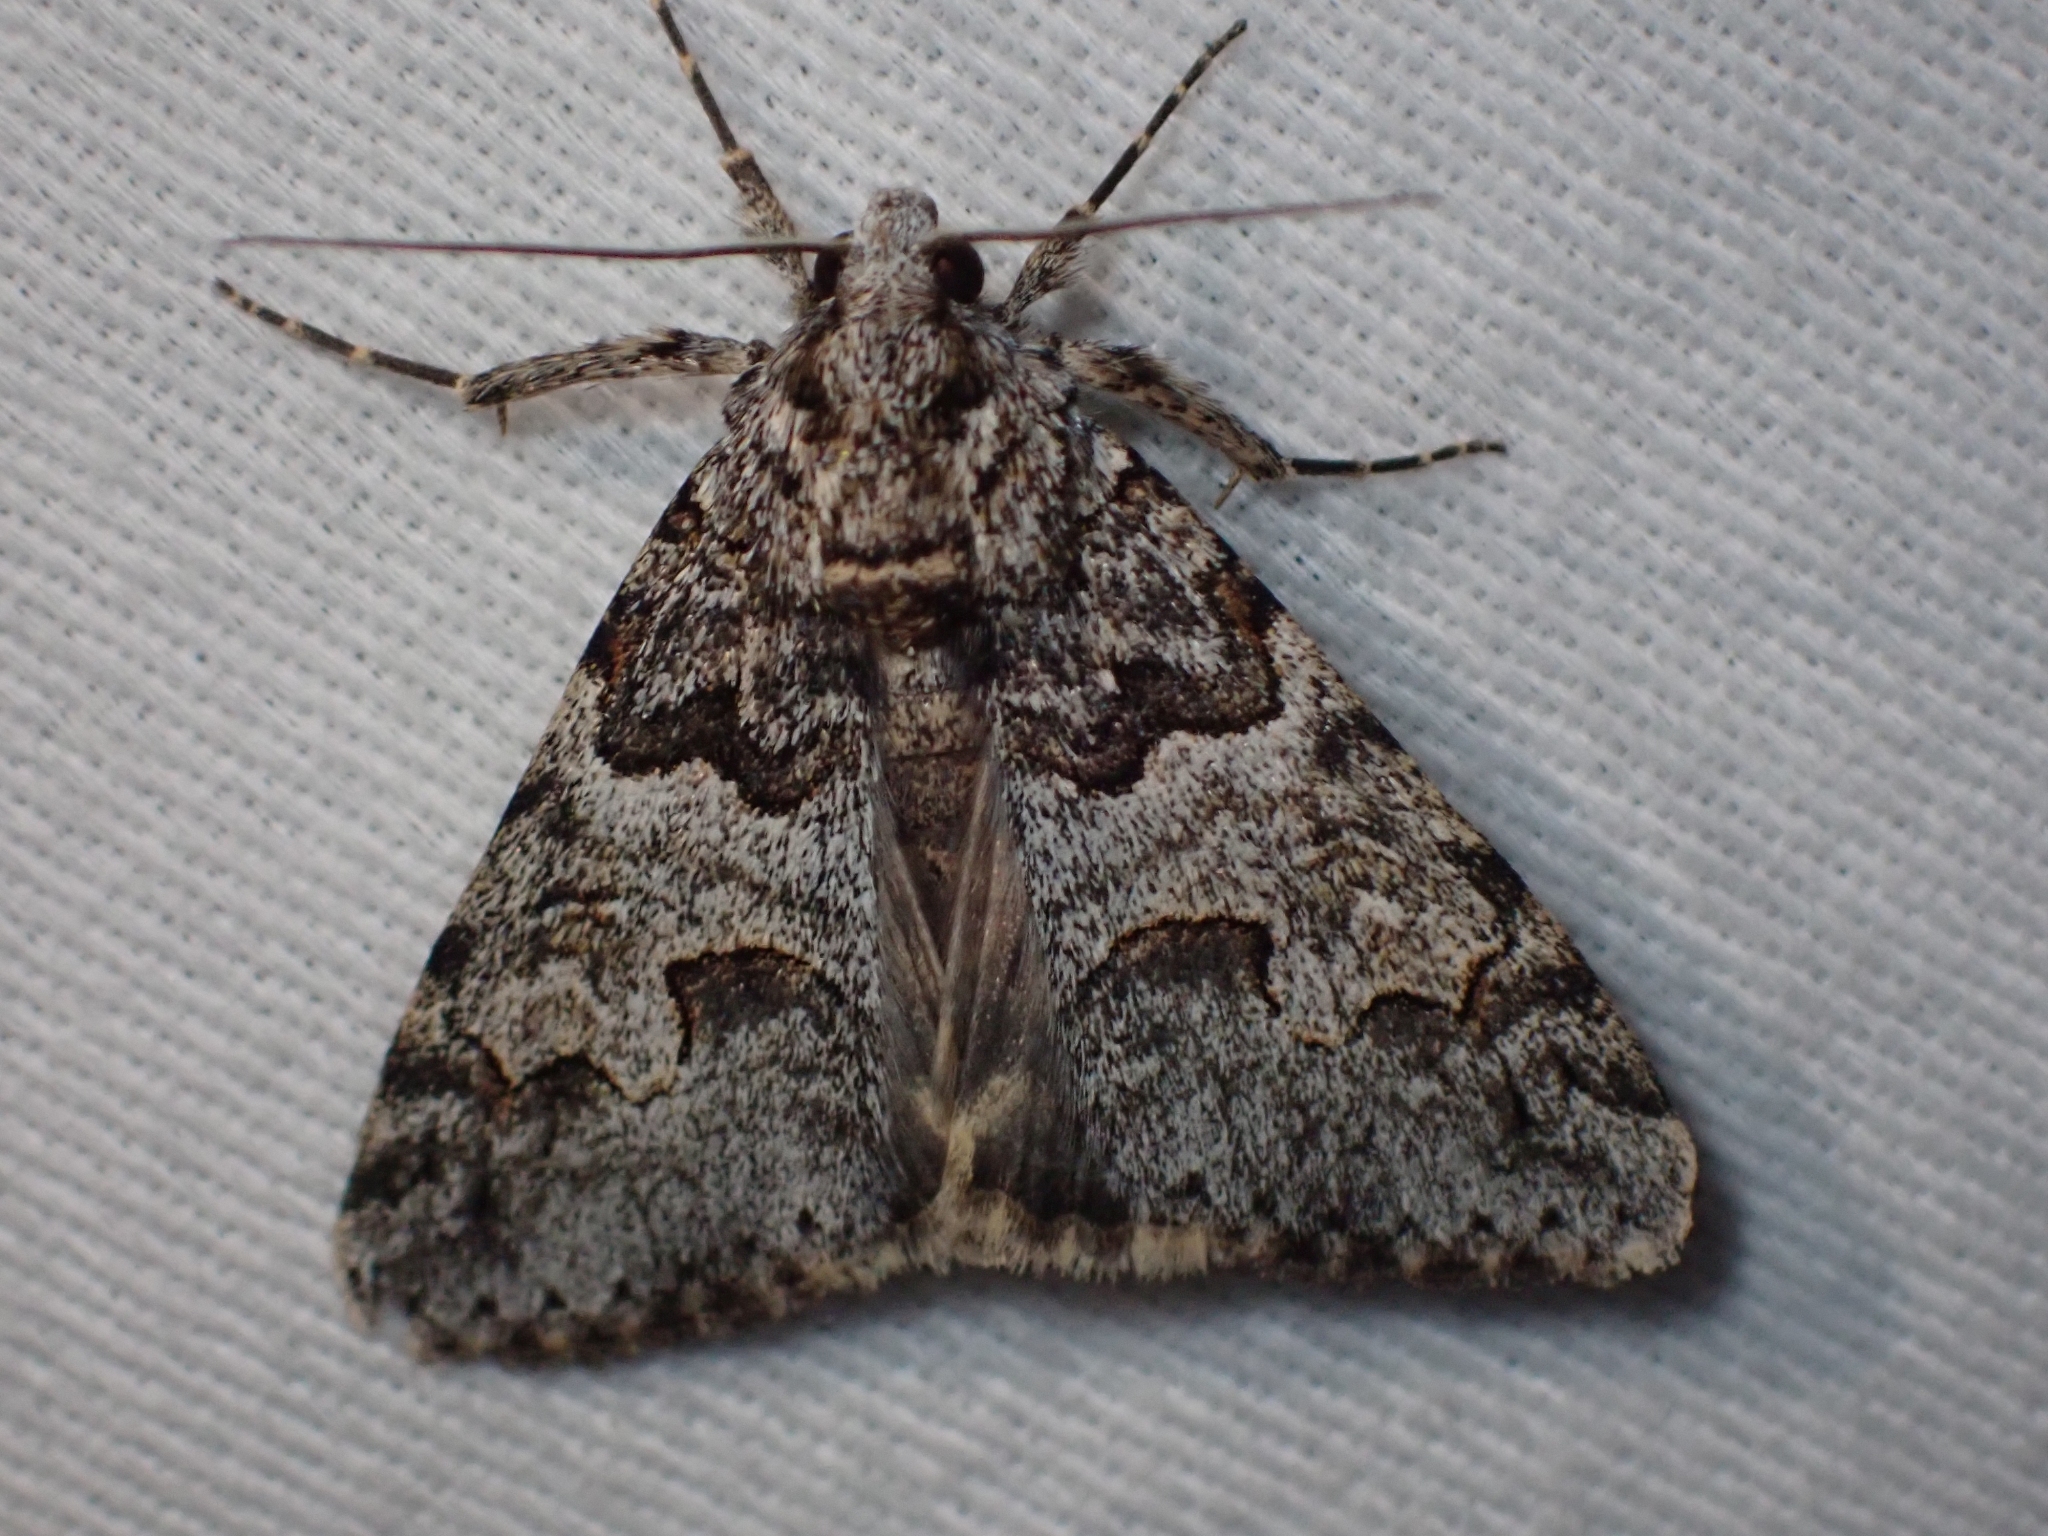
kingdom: Animalia
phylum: Arthropoda
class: Insecta
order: Lepidoptera
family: Erebidae
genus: Drasteria
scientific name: Drasteria sabulosa
